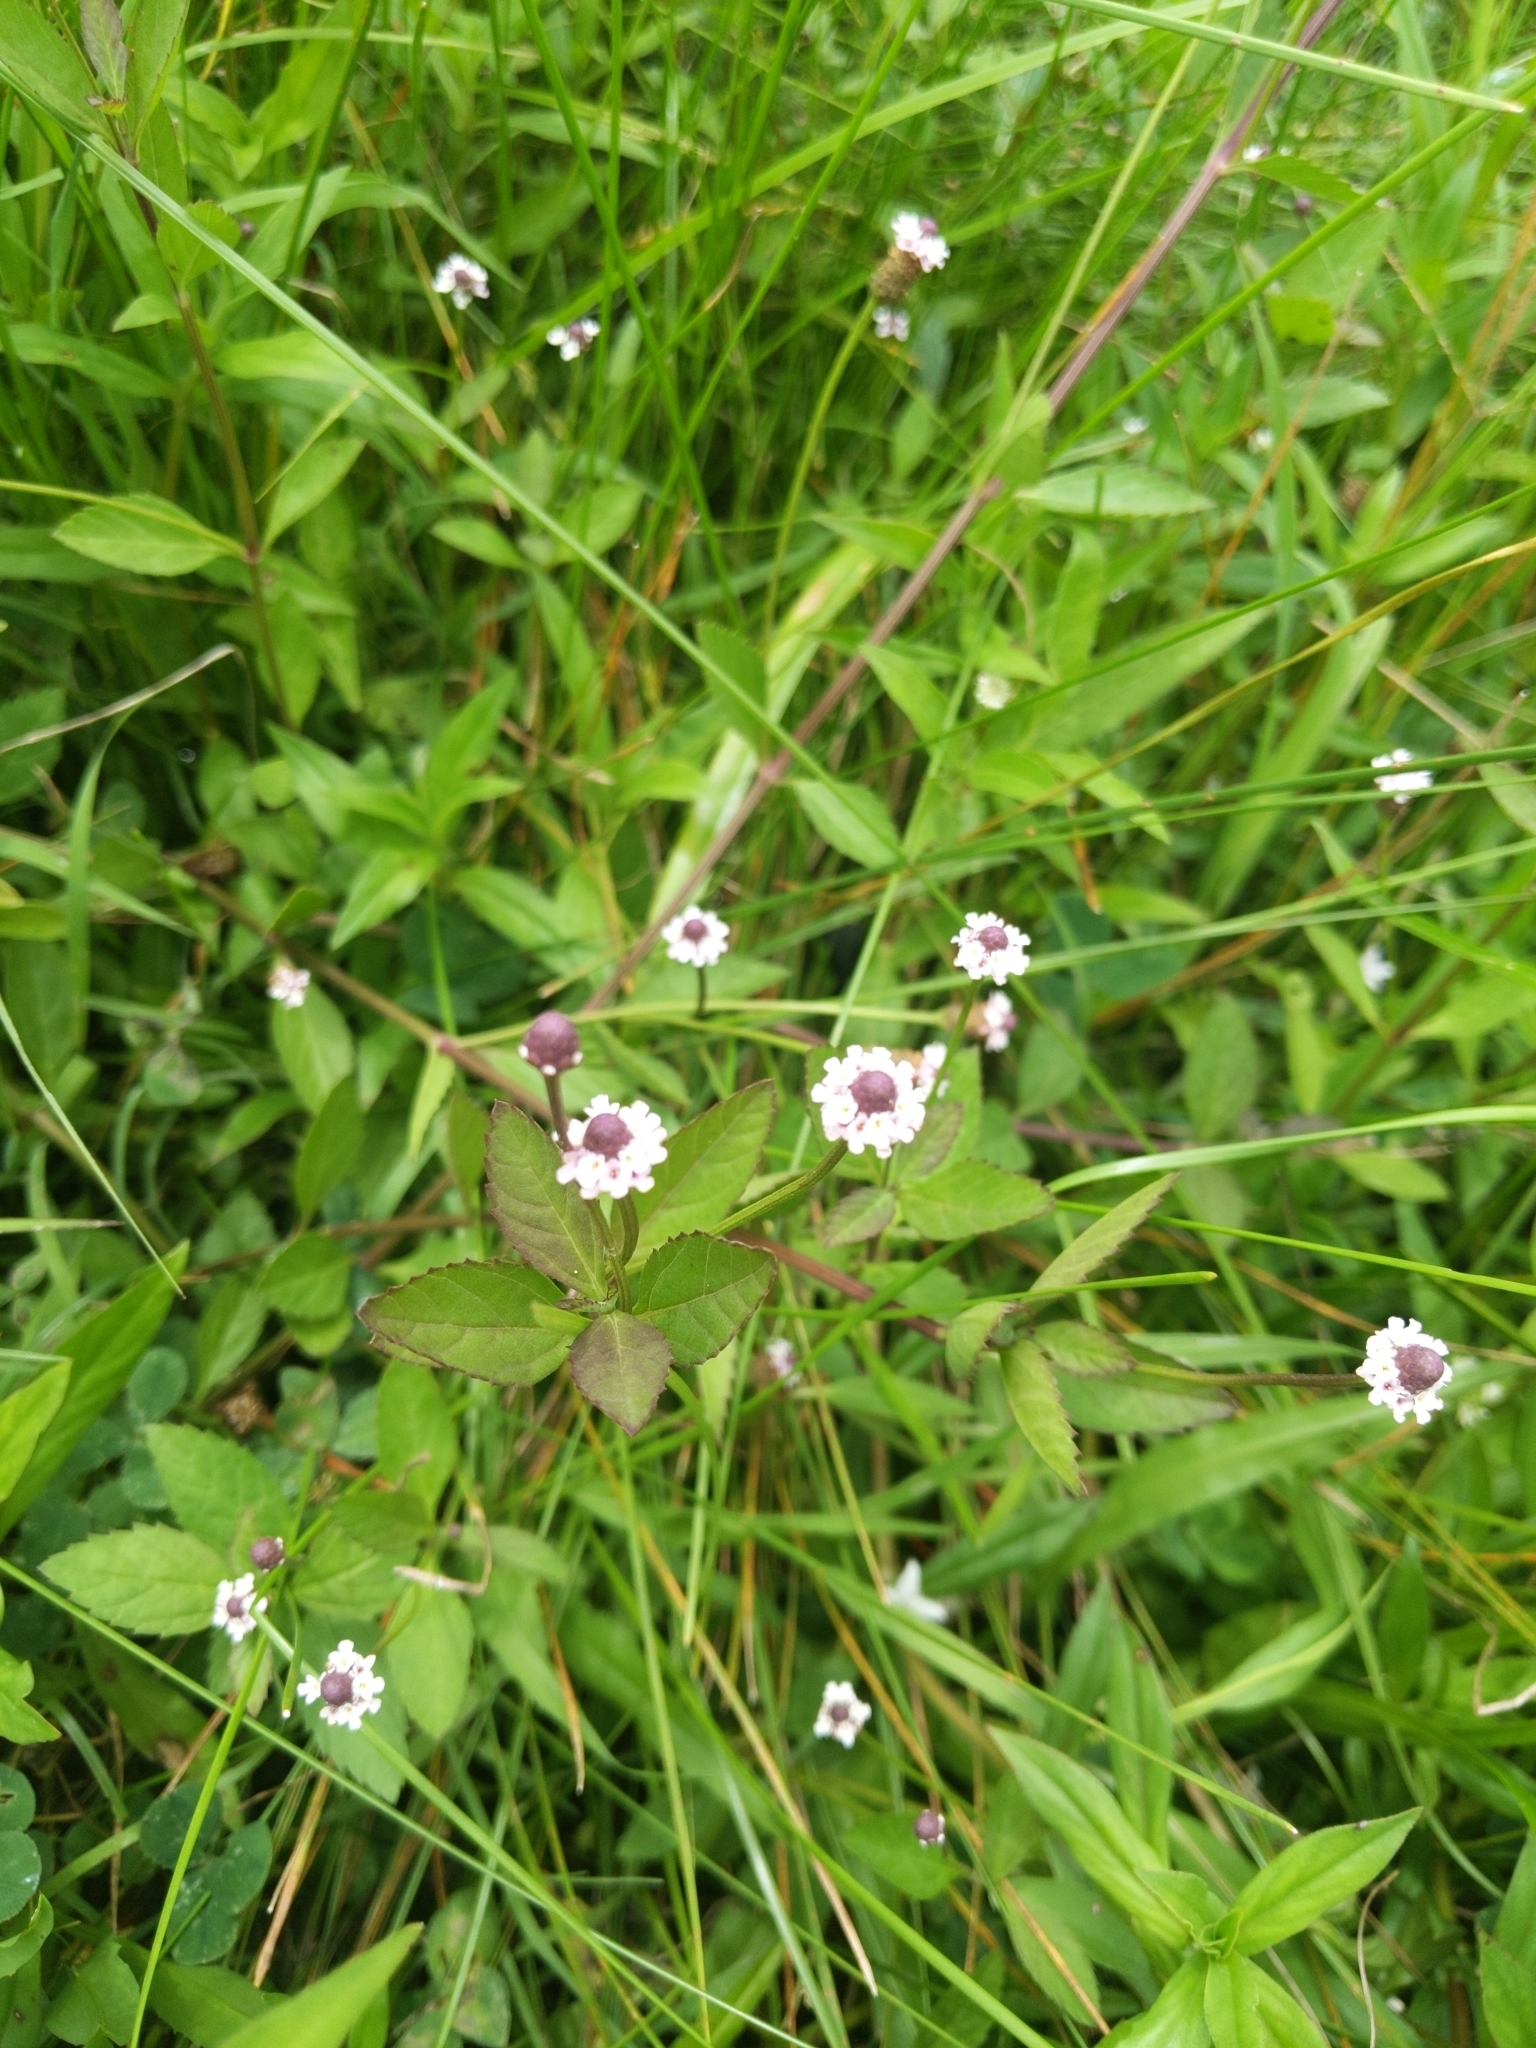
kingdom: Plantae
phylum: Tracheophyta
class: Magnoliopsida
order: Lamiales
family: Verbenaceae
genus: Phyla
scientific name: Phyla lanceolata
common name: Northern fogfruit
